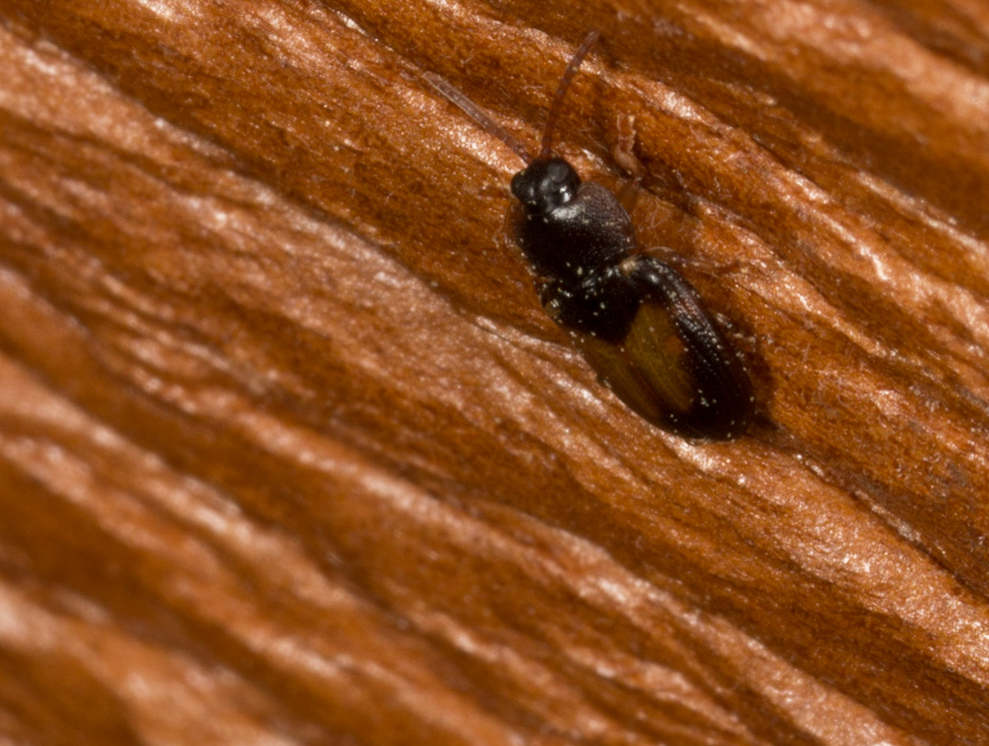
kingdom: Animalia
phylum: Arthropoda
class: Insecta
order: Coleoptera
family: Chrysomelidae
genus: Demotispa
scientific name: Demotispa florianoi
